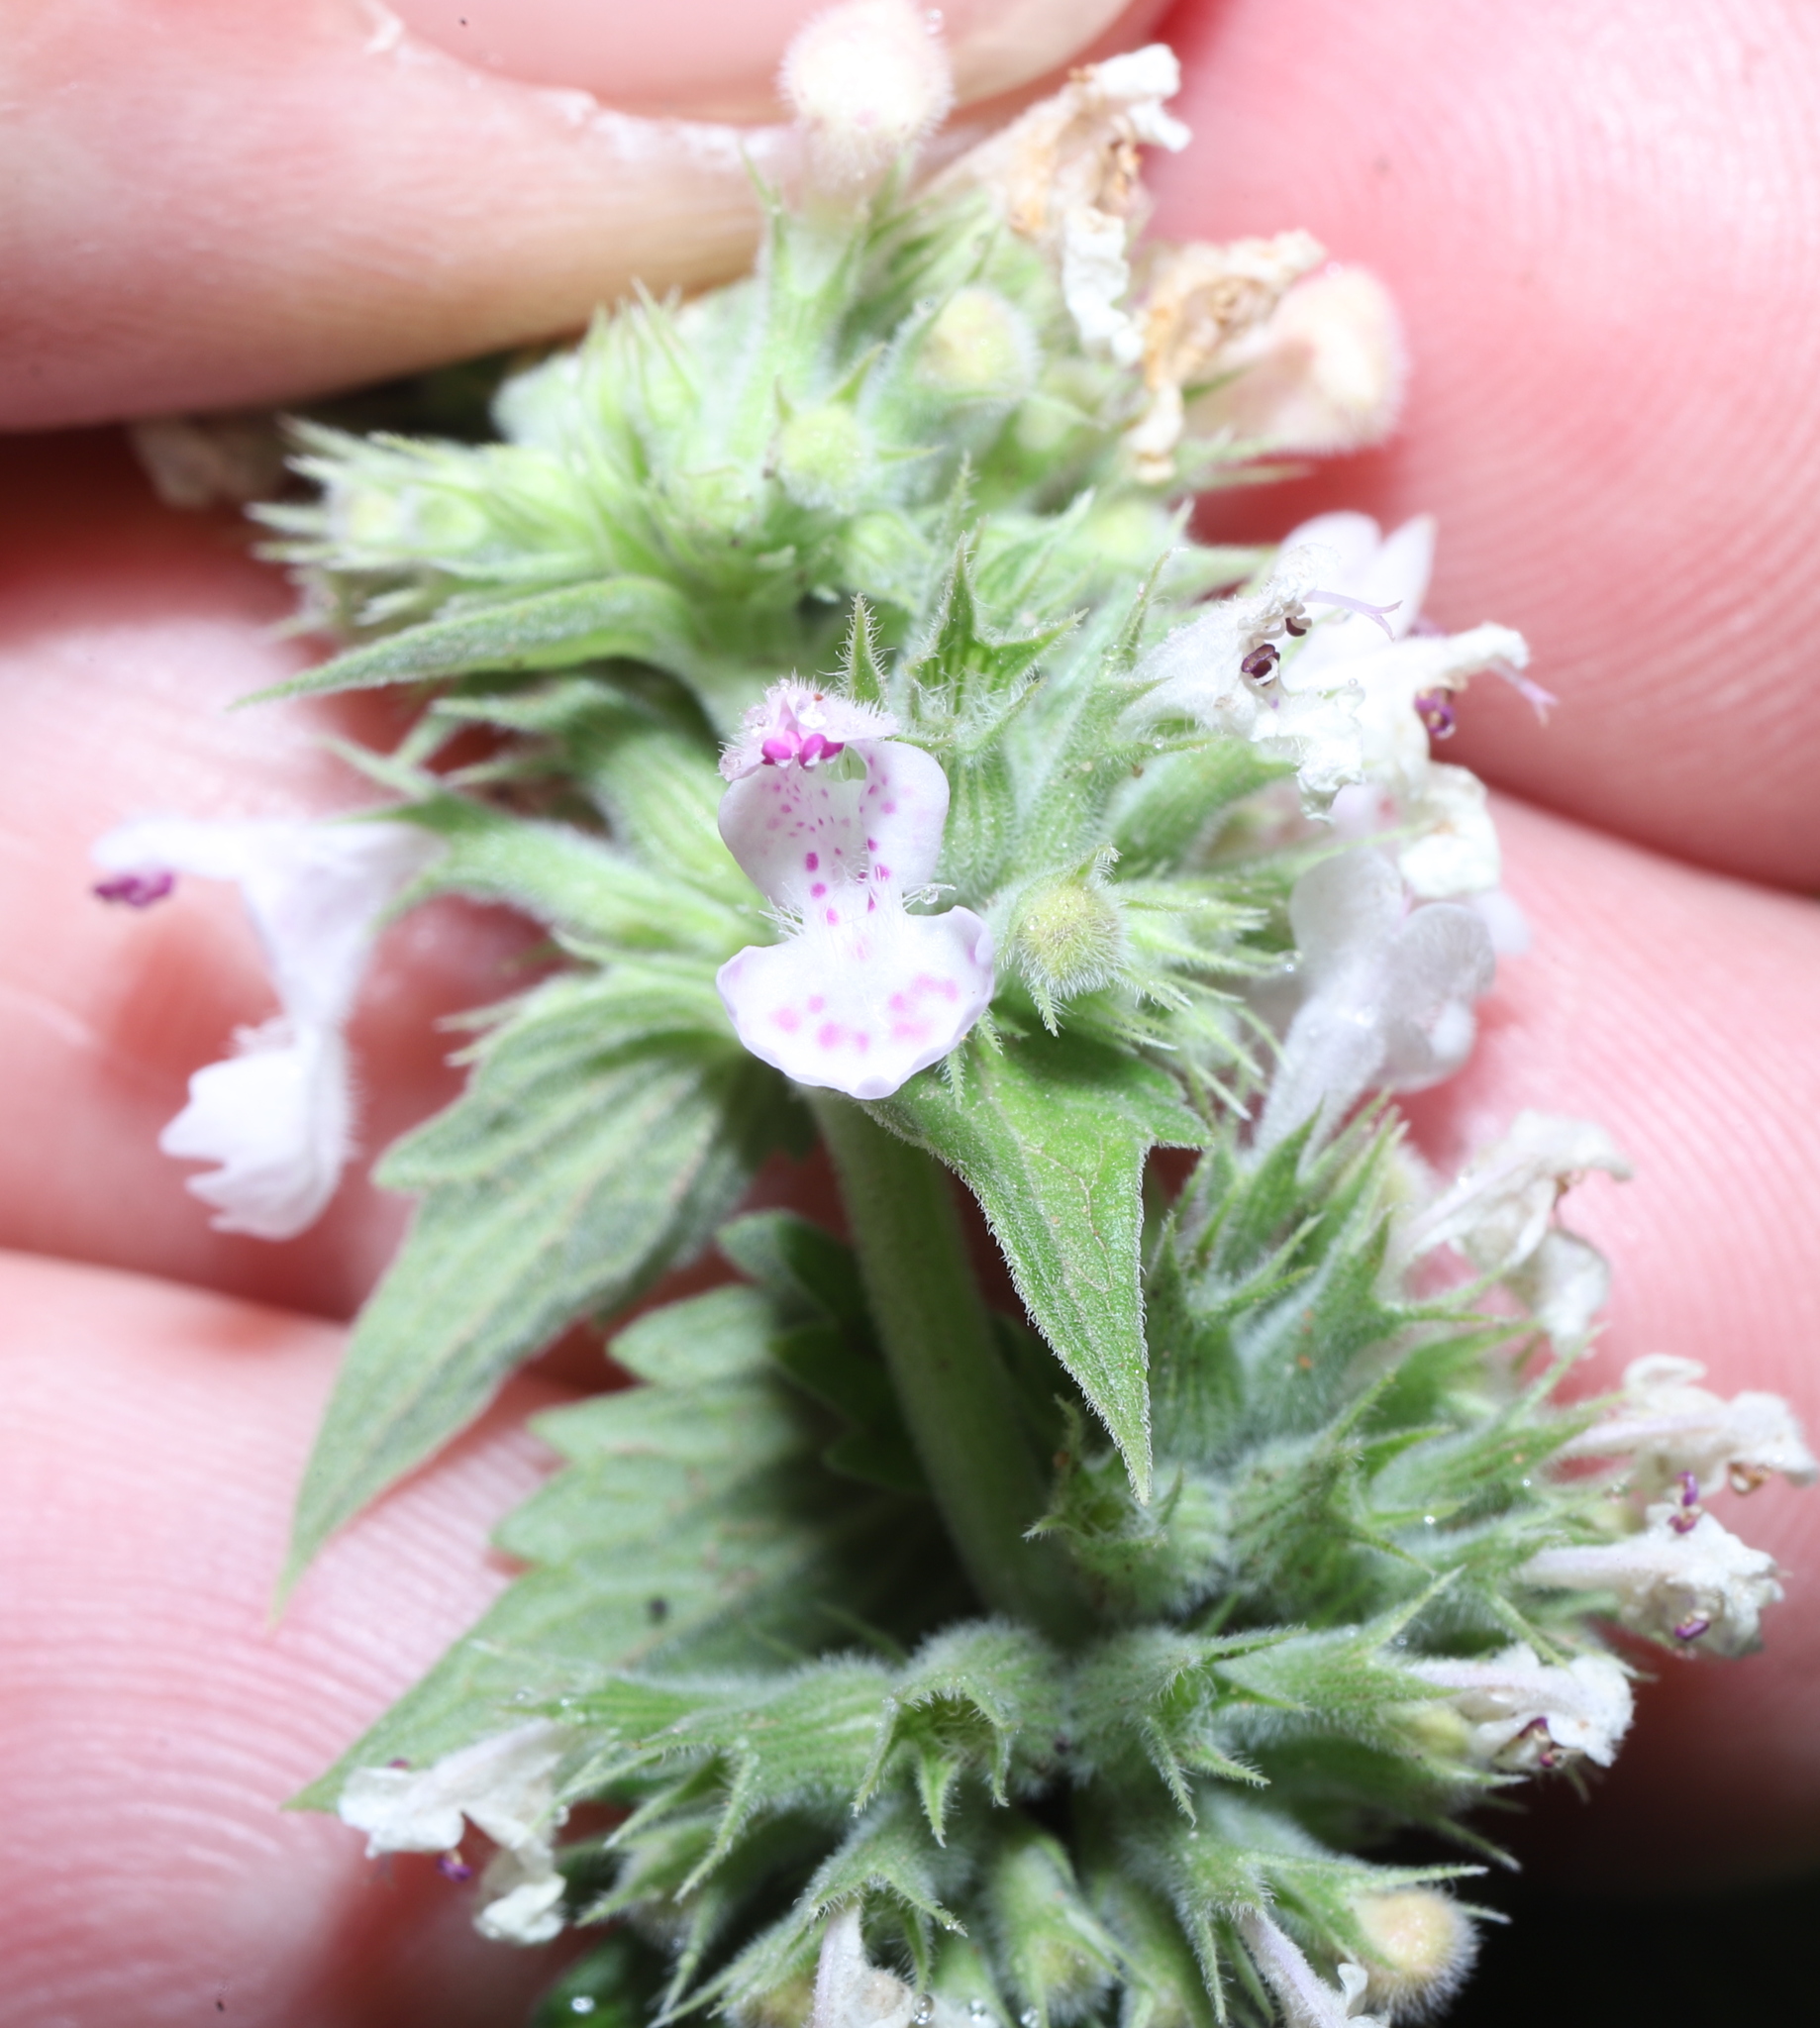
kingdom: Plantae
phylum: Tracheophyta
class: Magnoliopsida
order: Lamiales
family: Lamiaceae
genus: Nepeta
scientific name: Nepeta cataria
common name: Catnip
